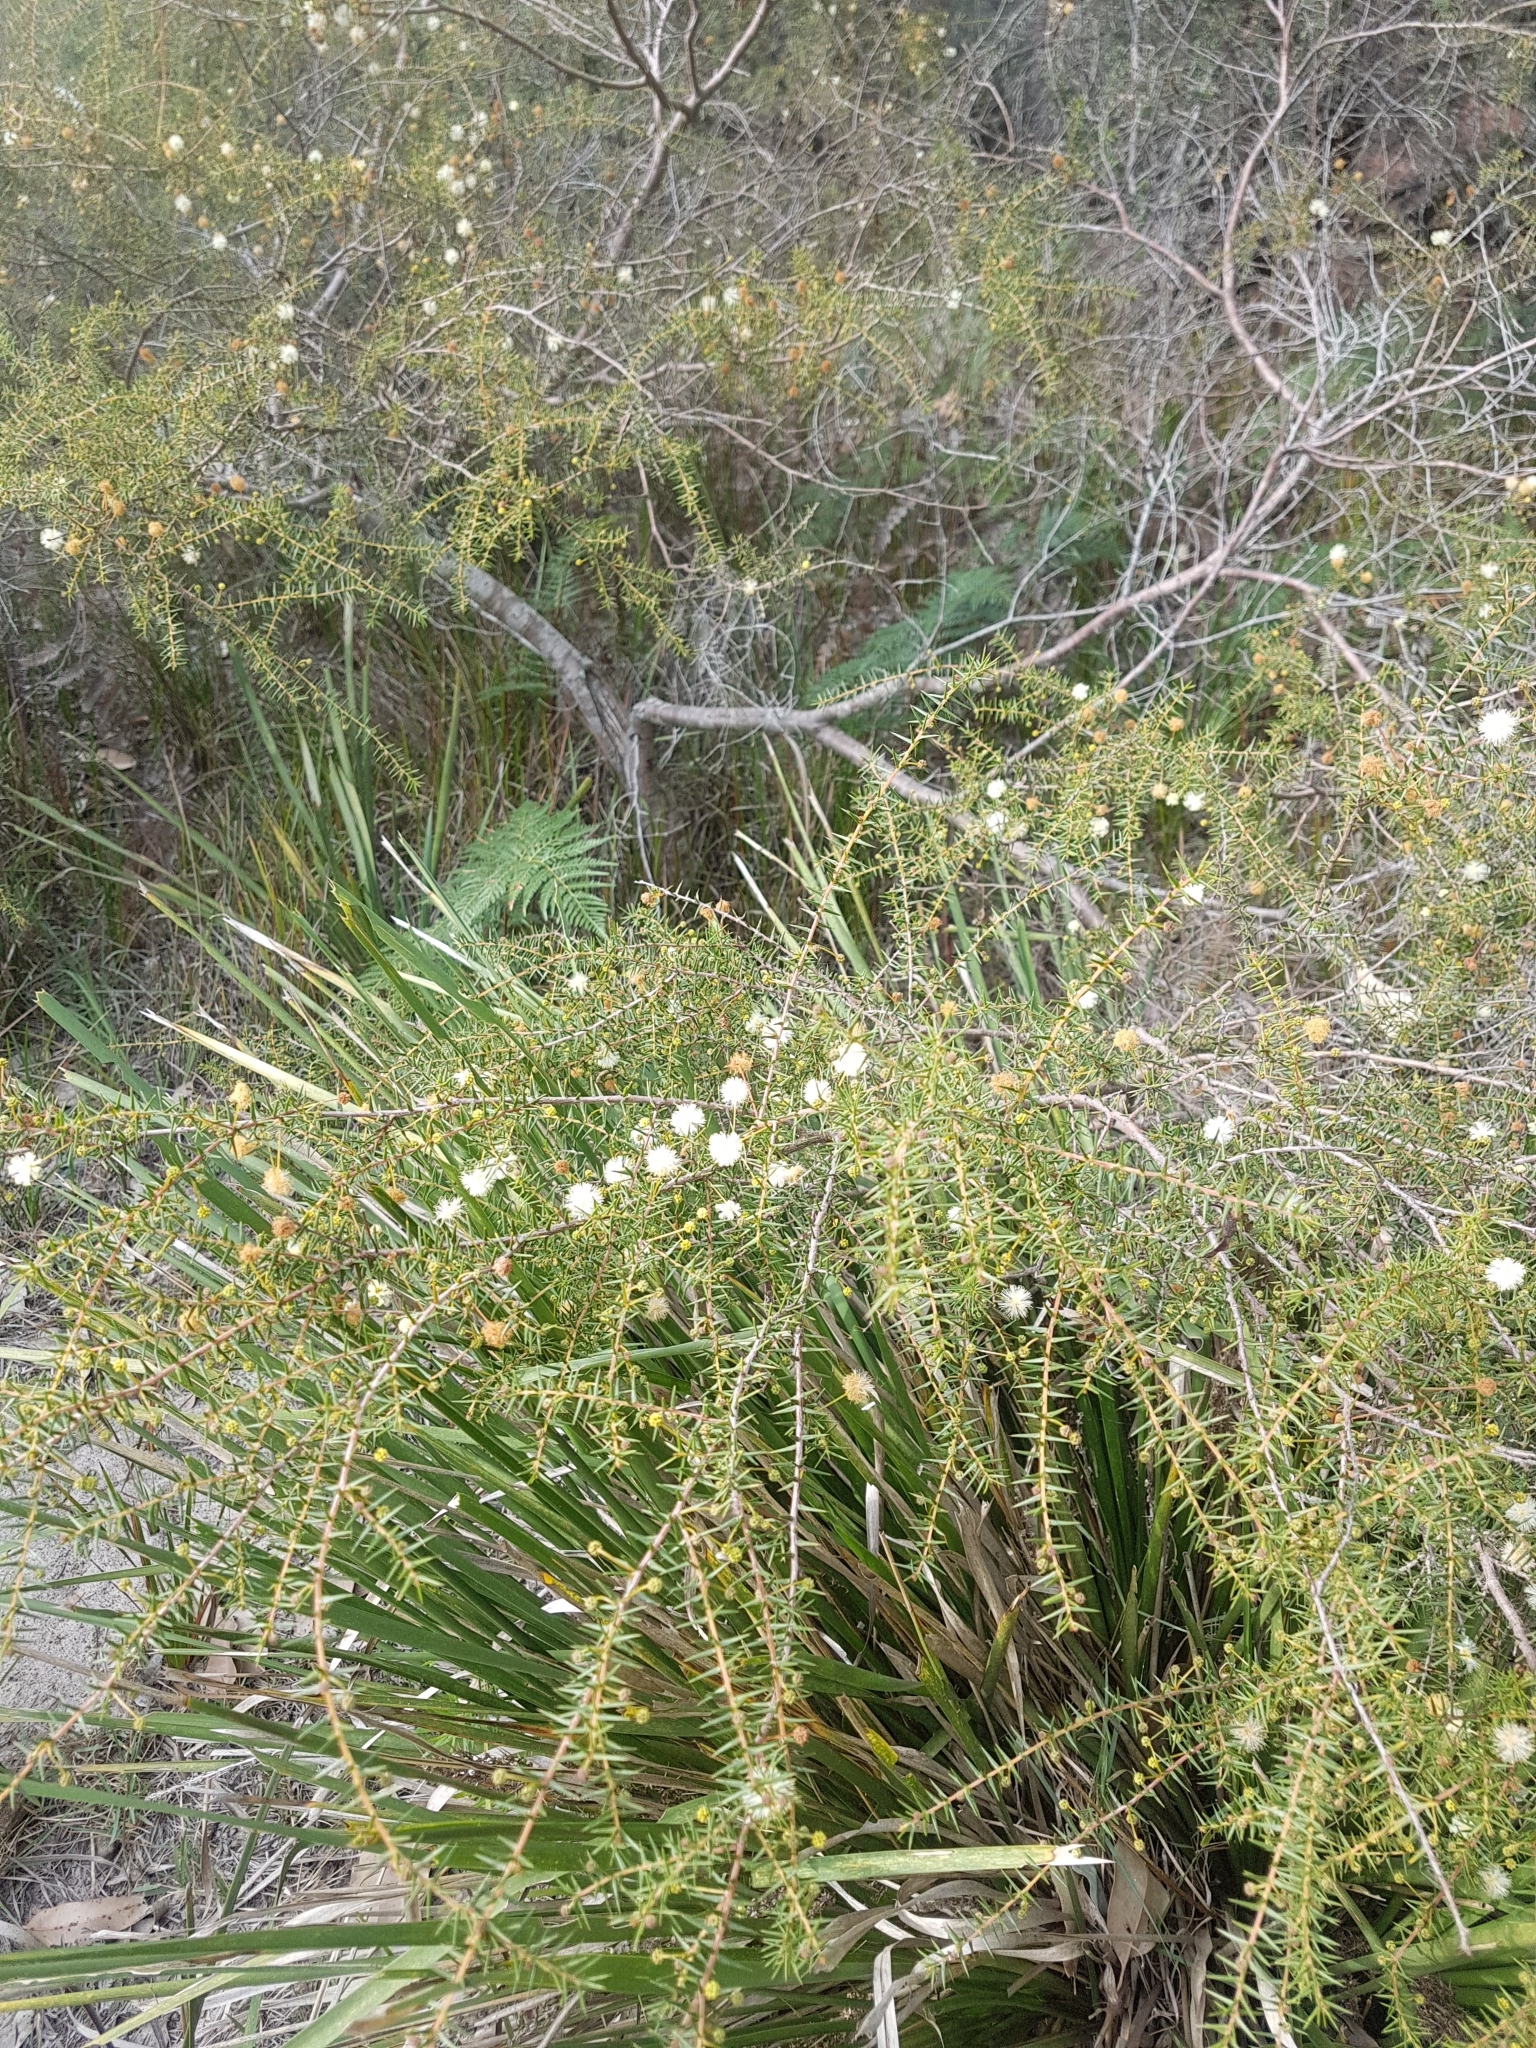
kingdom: Plantae
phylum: Tracheophyta
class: Magnoliopsida
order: Fabales
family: Fabaceae
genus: Acacia
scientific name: Acacia ulicifolia
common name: Juniper wattle
